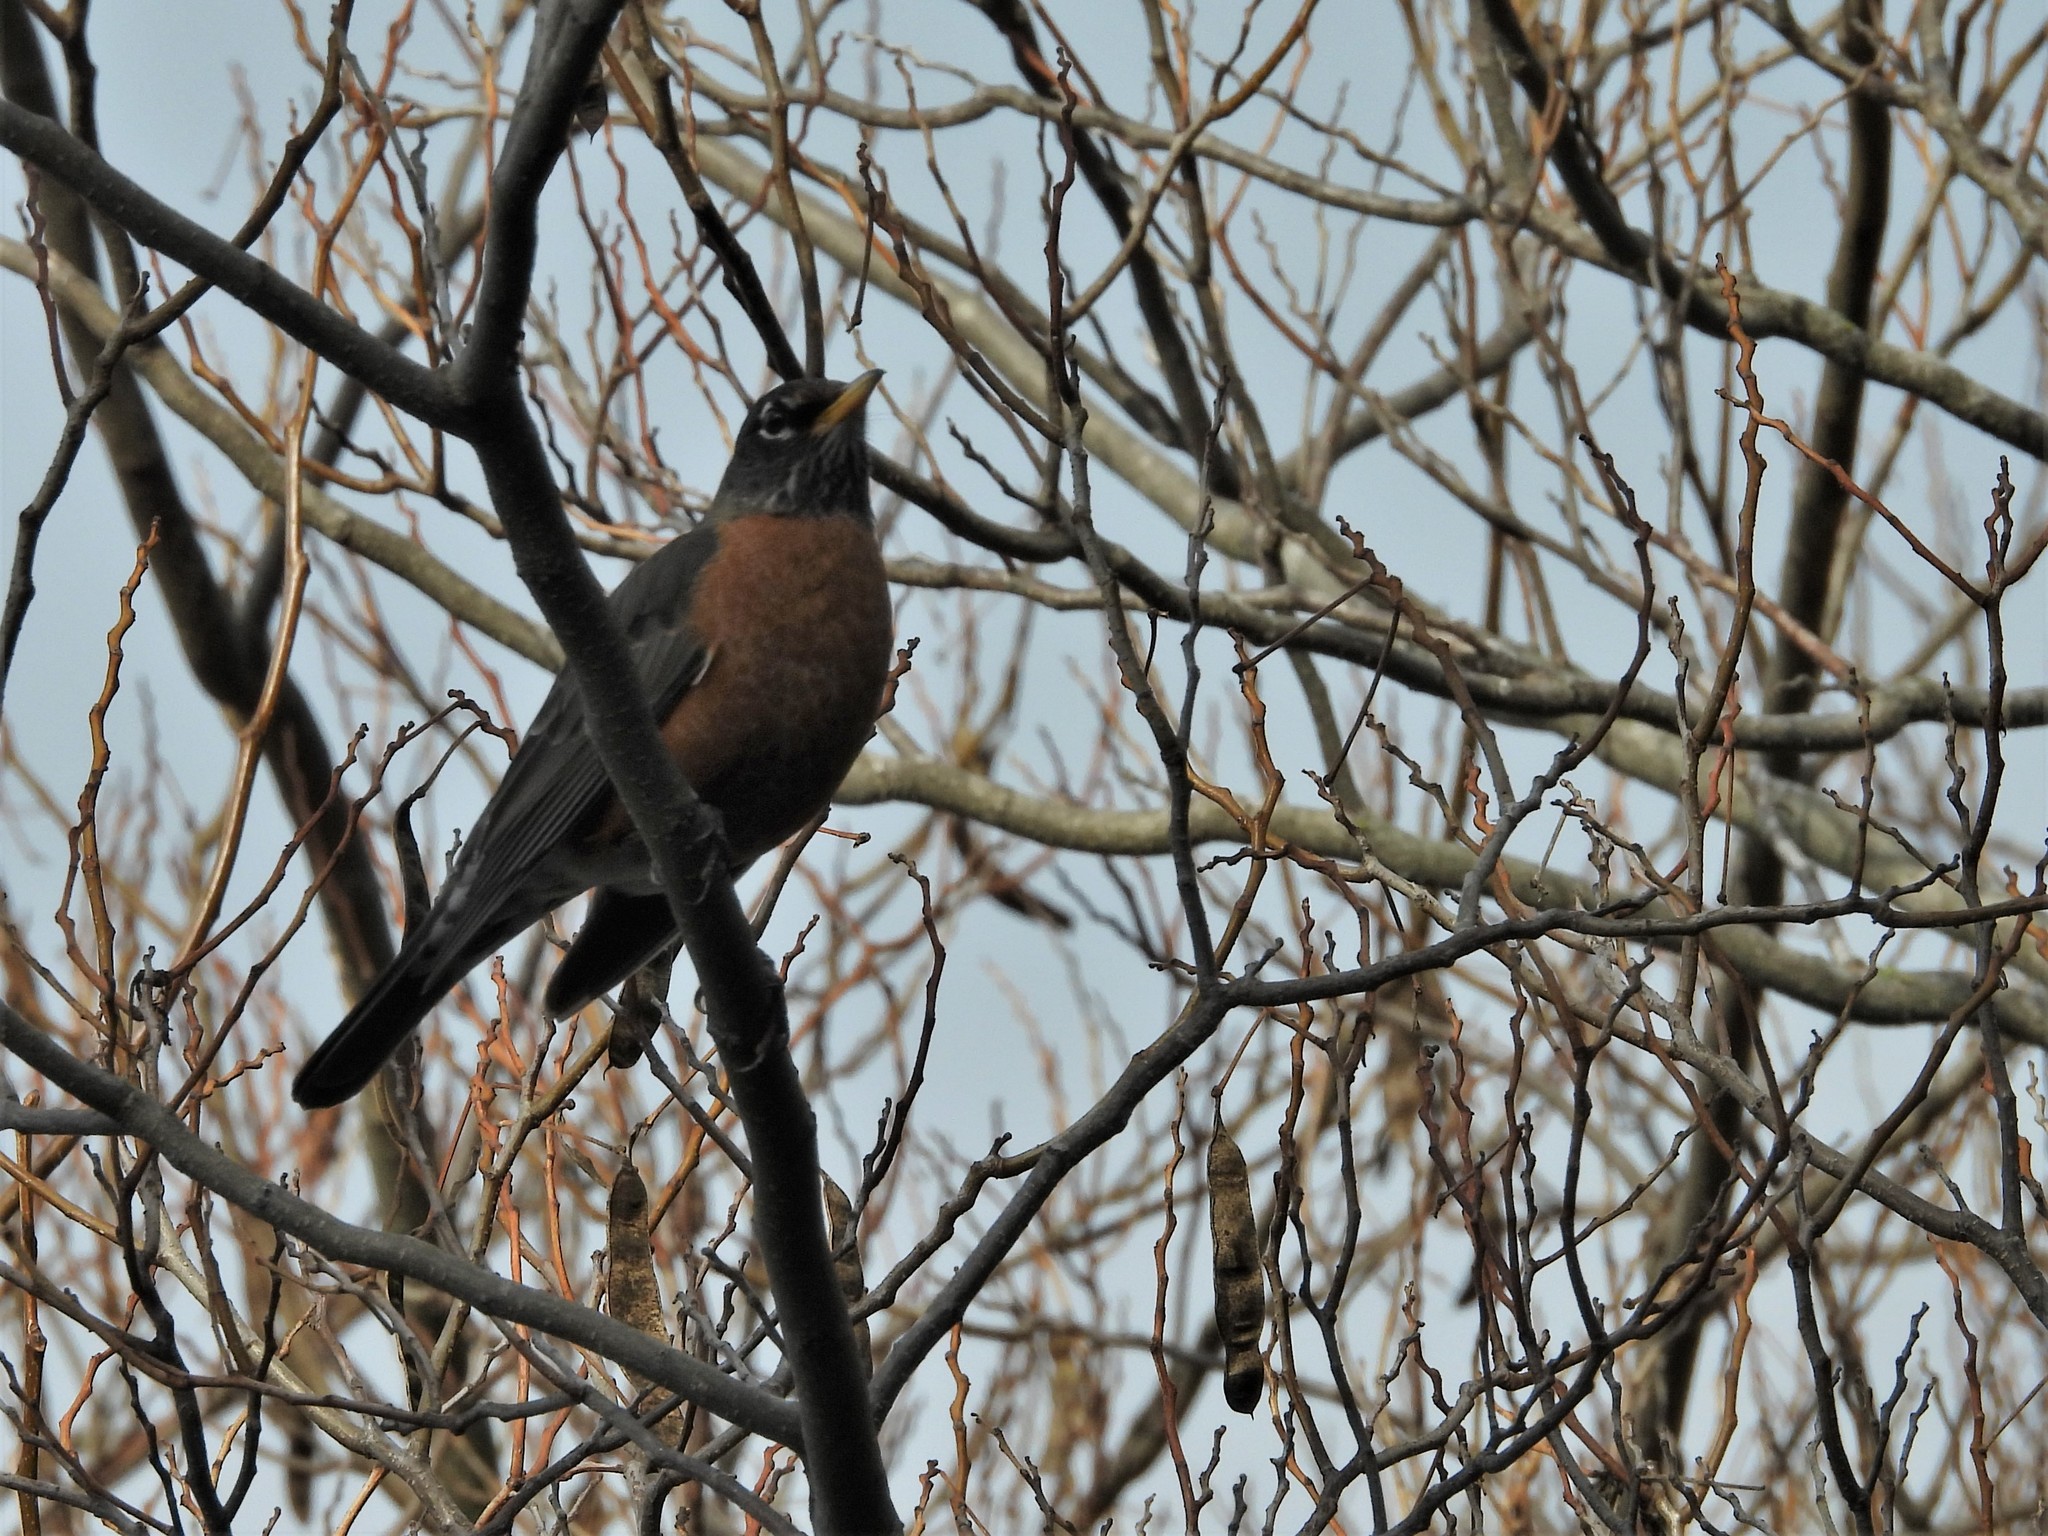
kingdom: Animalia
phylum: Chordata
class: Aves
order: Passeriformes
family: Turdidae
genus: Turdus
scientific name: Turdus migratorius
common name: American robin
